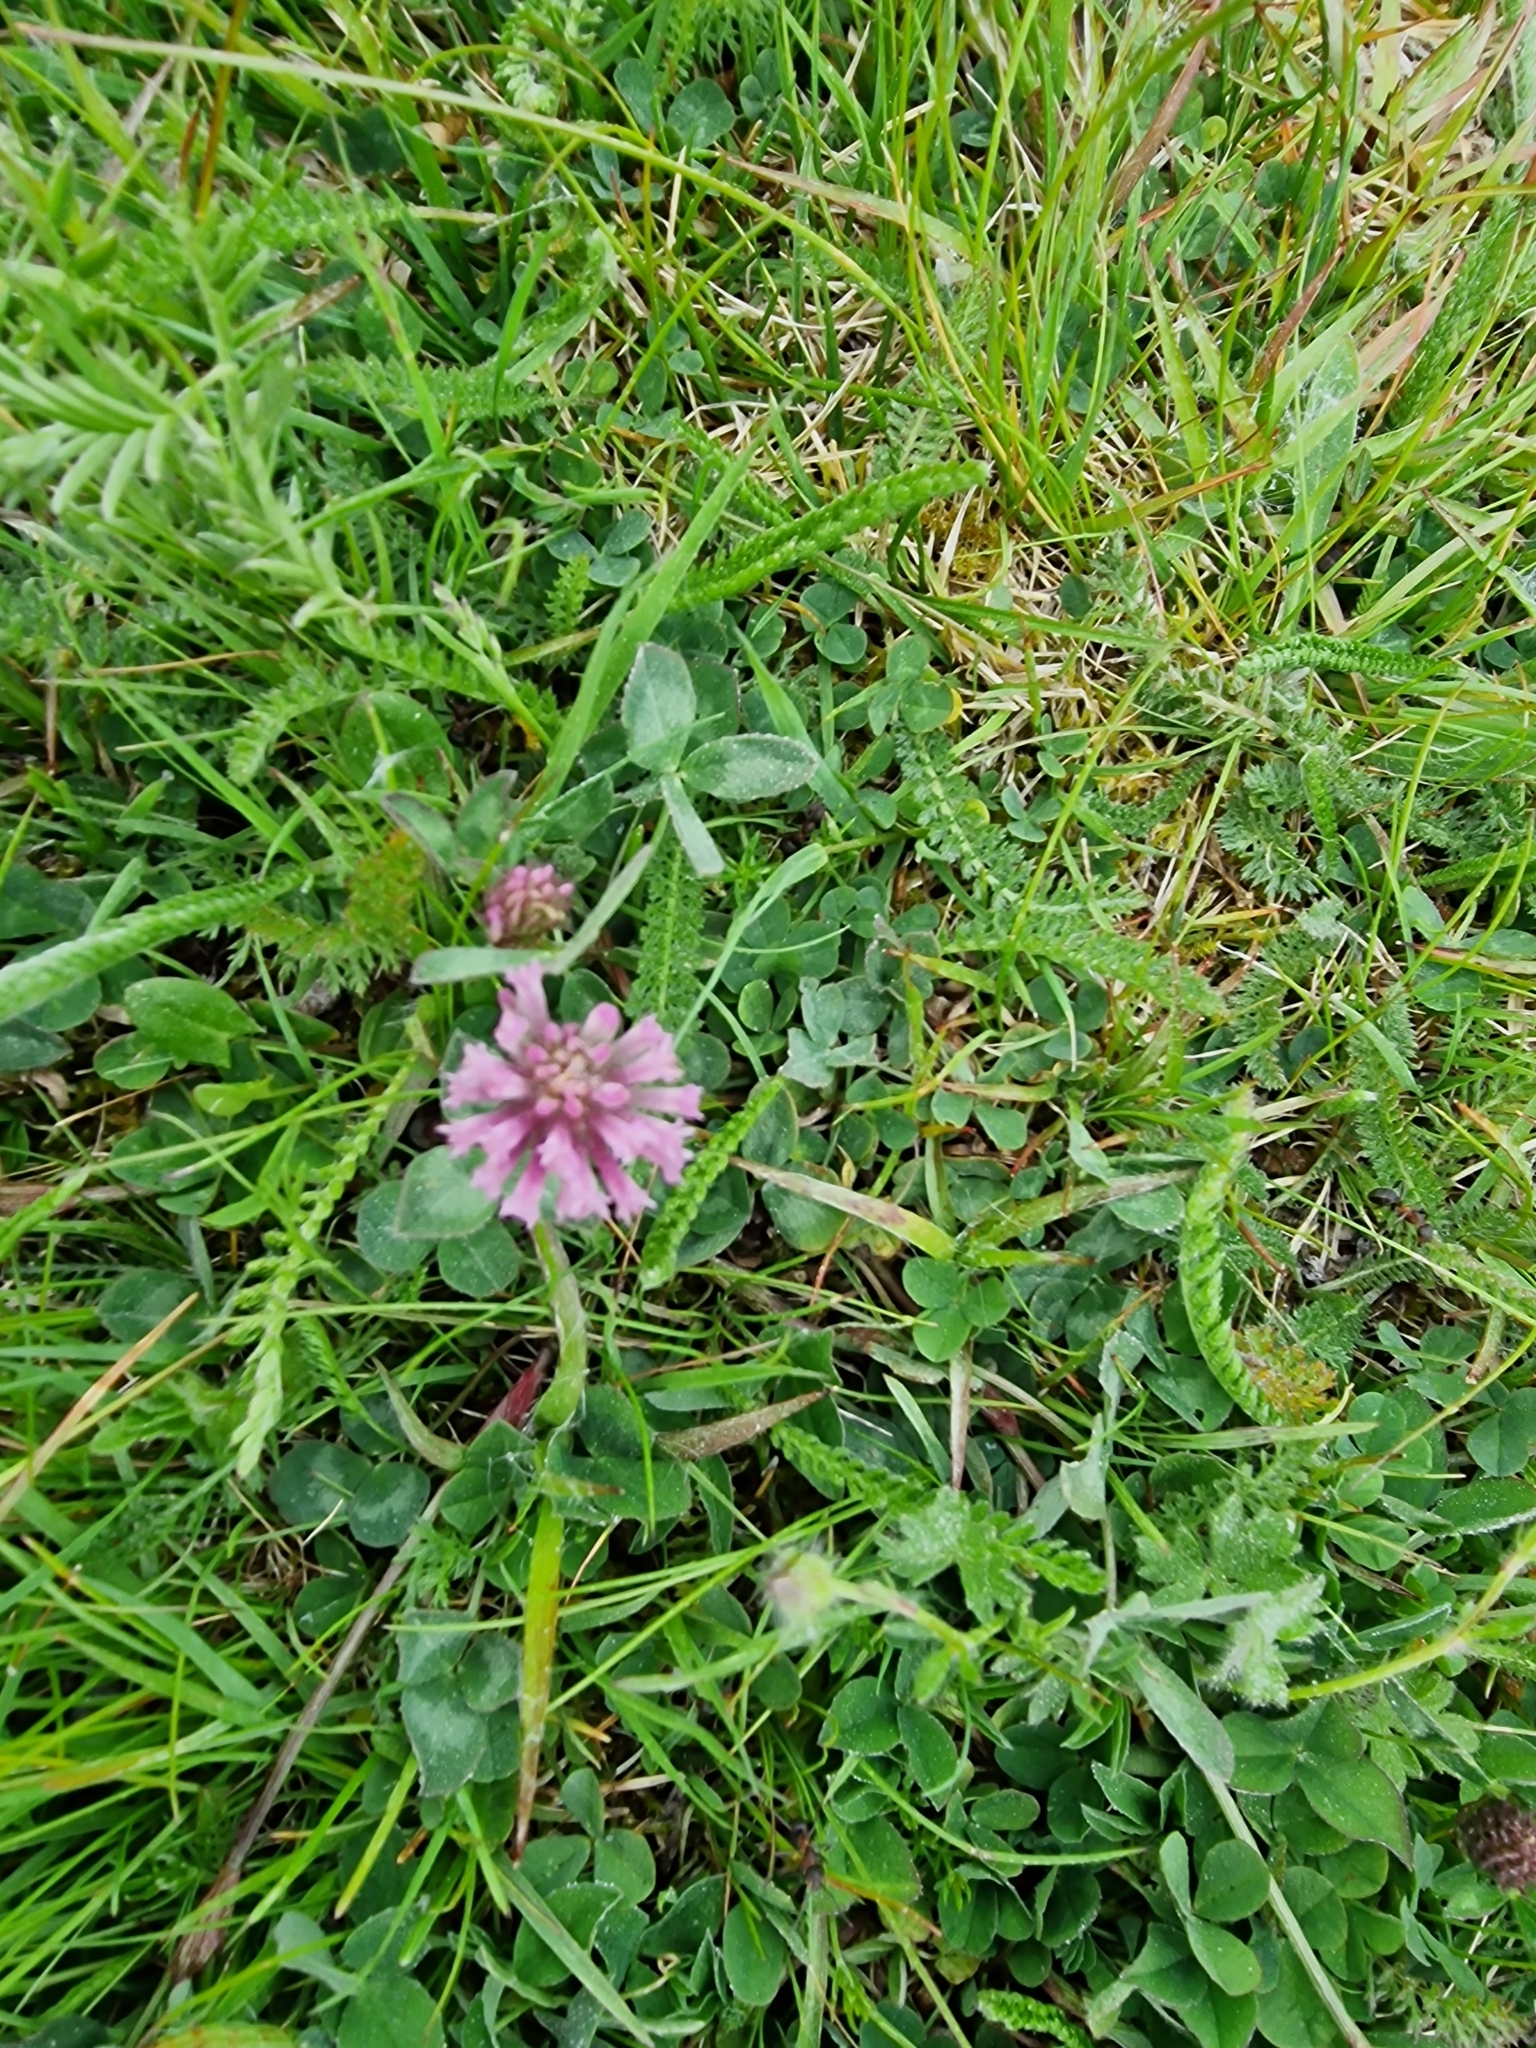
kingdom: Plantae
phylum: Tracheophyta
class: Magnoliopsida
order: Fabales
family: Fabaceae
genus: Trifolium
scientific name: Trifolium pratense
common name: Red clover
